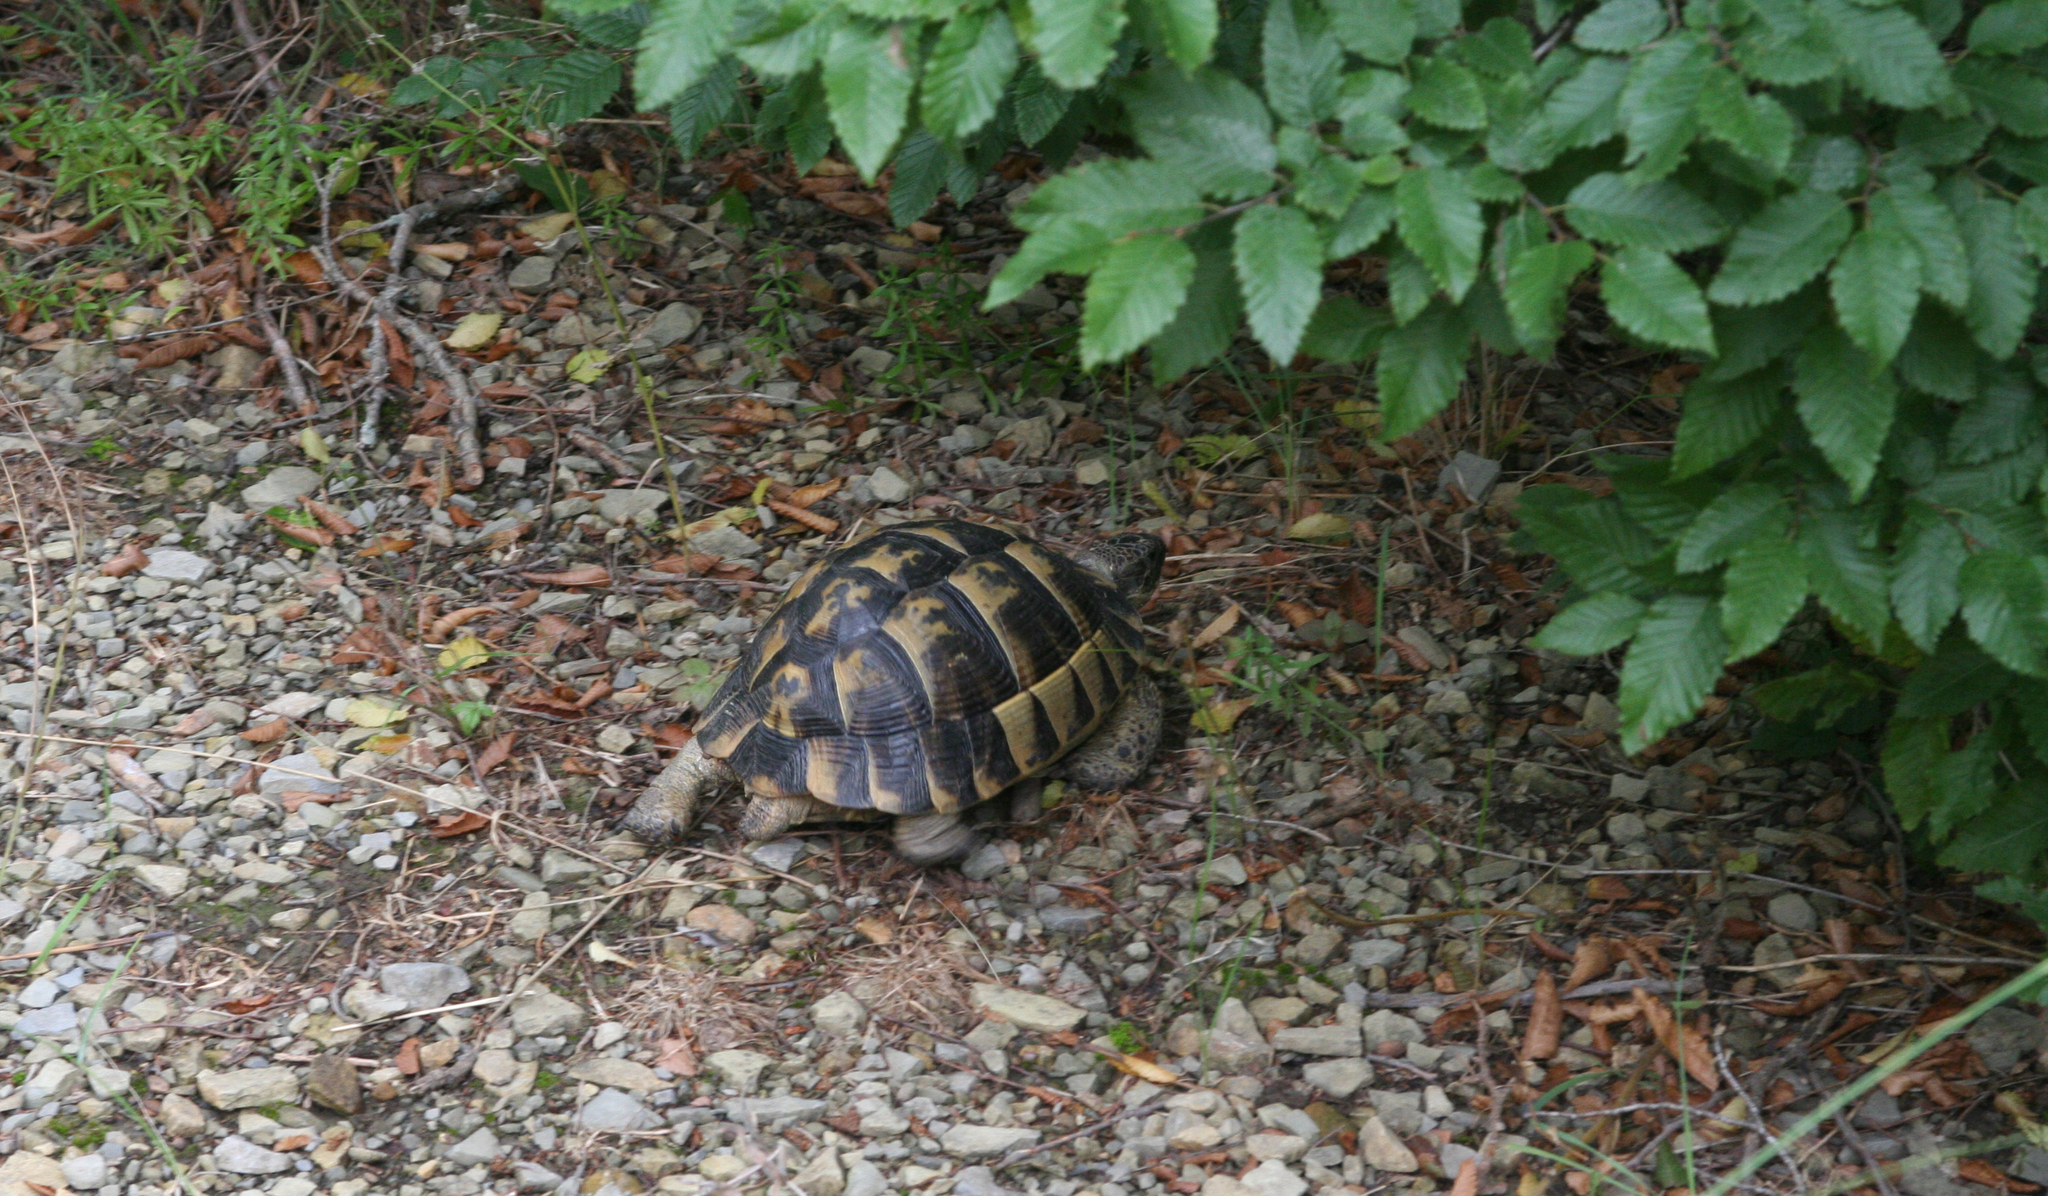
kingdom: Animalia
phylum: Chordata
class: Testudines
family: Testudinidae
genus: Testudo
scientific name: Testudo graeca
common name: Common tortoise
